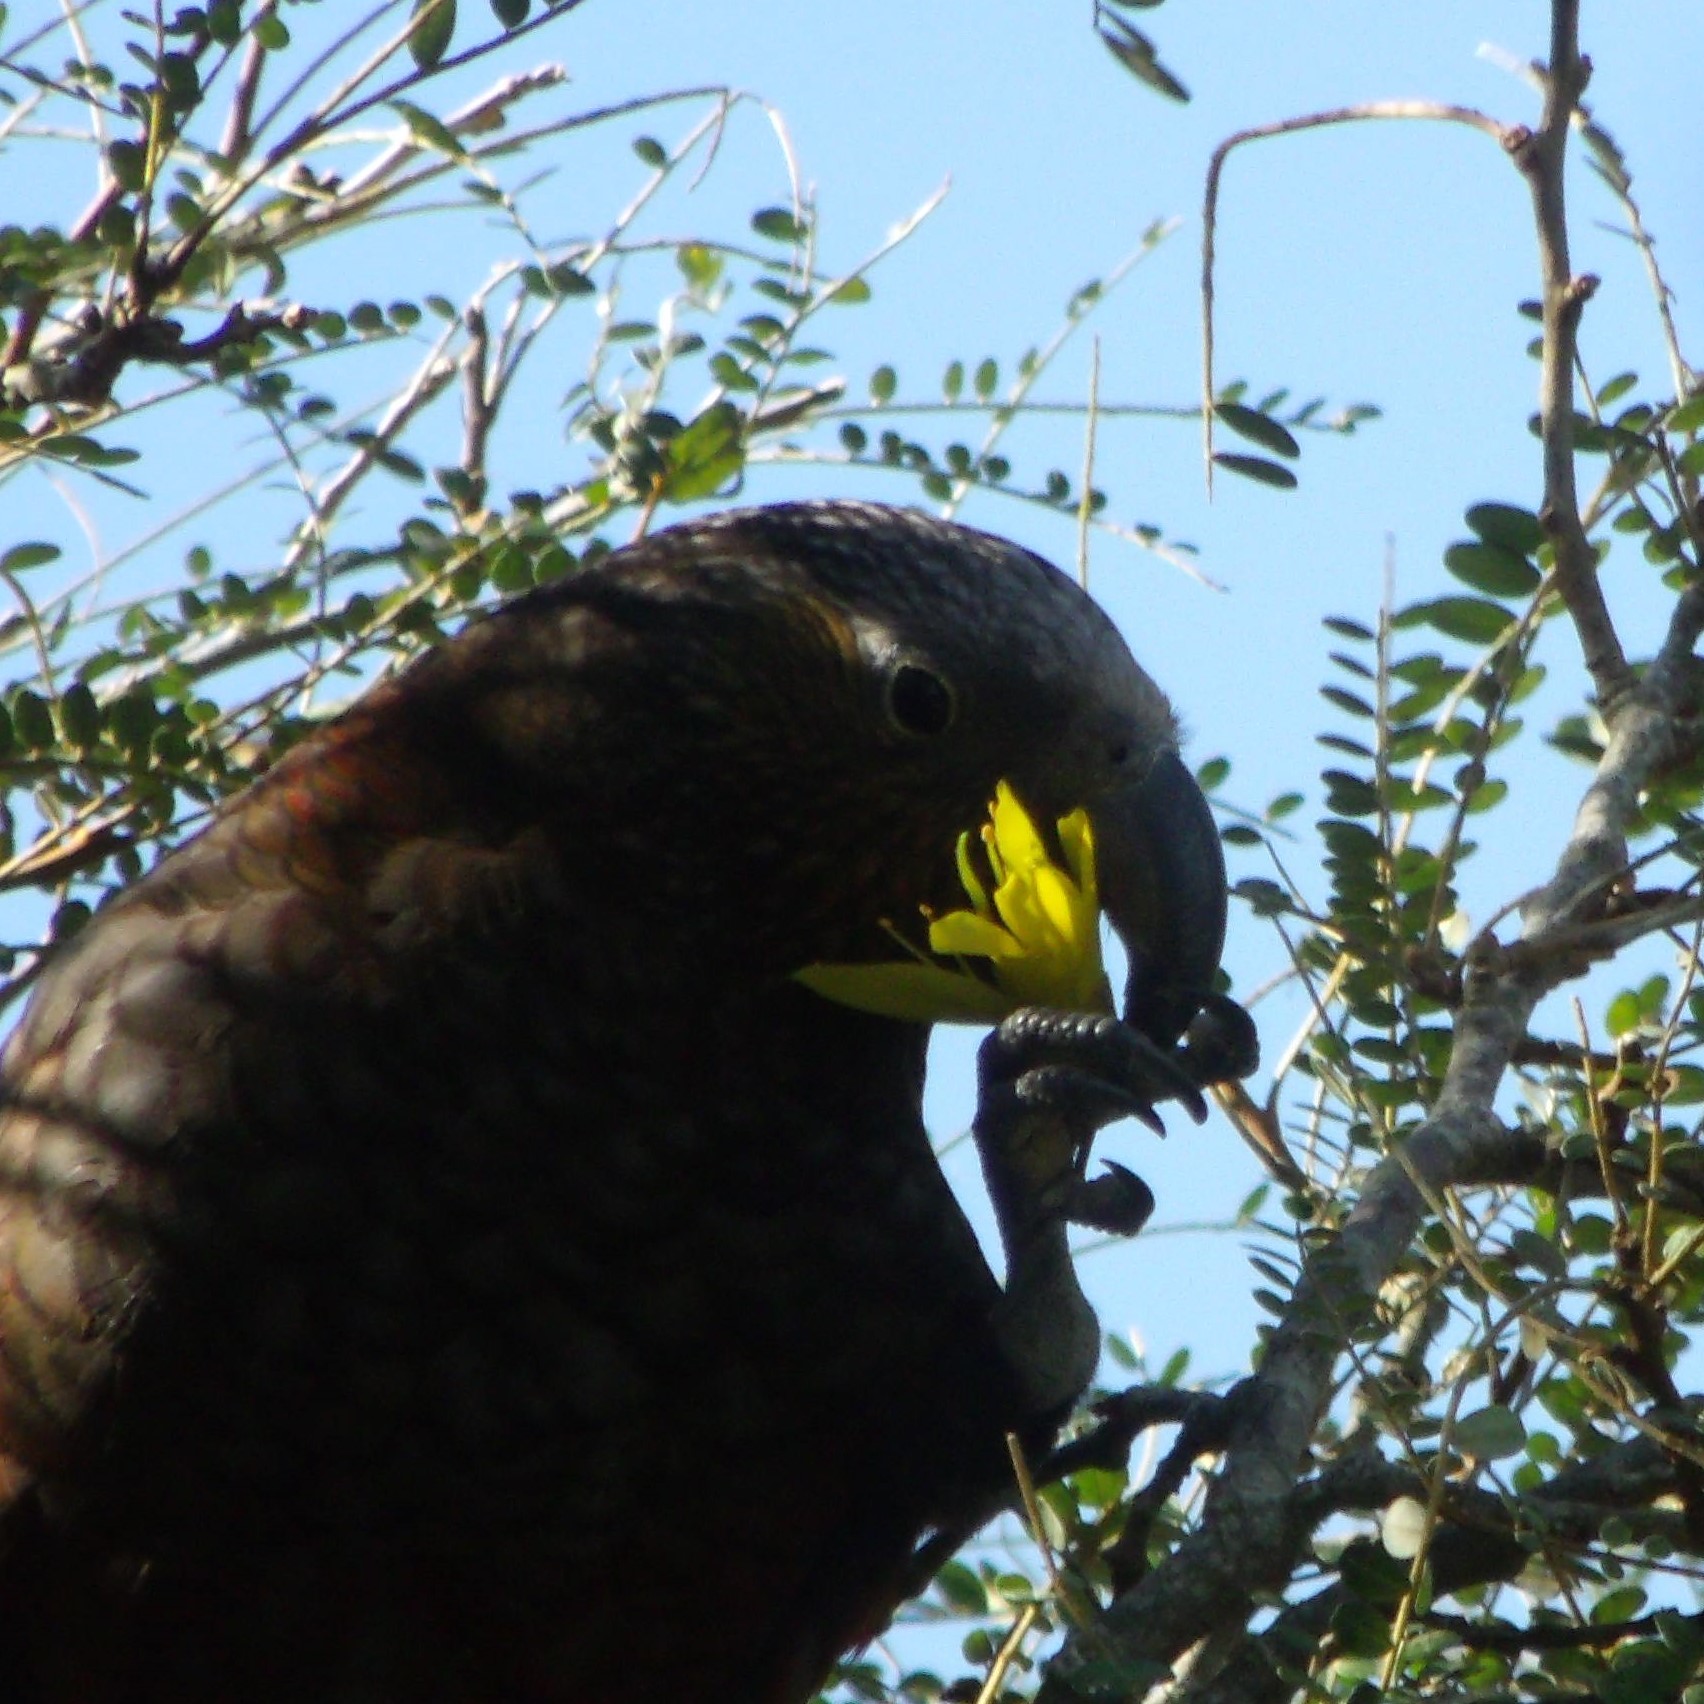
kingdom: Animalia
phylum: Chordata
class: Aves
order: Psittaciformes
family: Psittacidae
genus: Nestor
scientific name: Nestor meridionalis
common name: New zealand kaka
